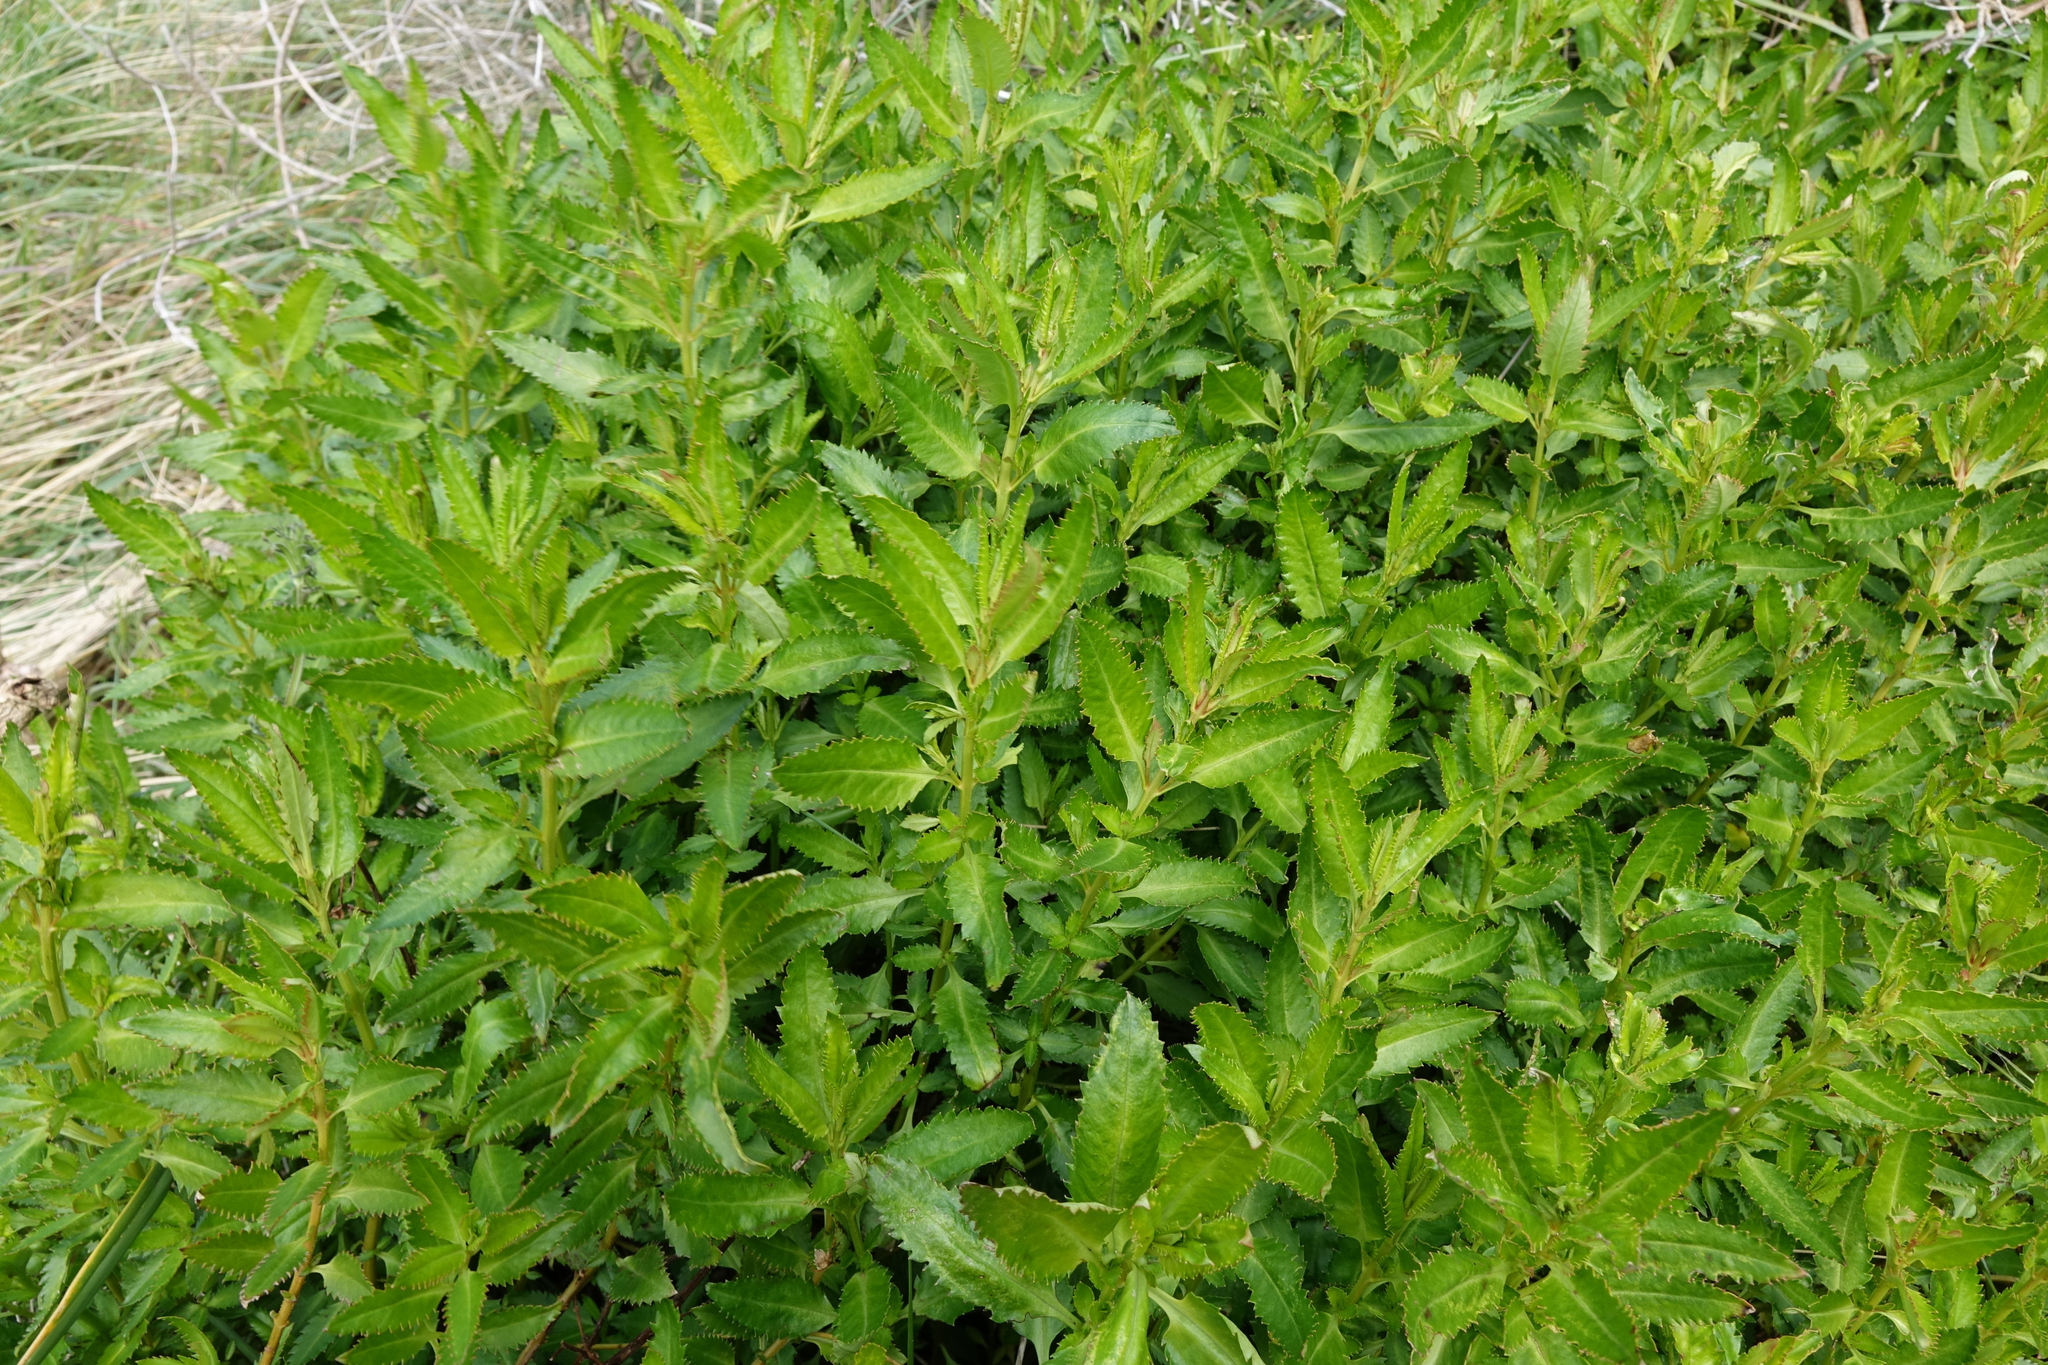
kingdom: Plantae
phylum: Tracheophyta
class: Magnoliopsida
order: Saxifragales
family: Haloragaceae
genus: Haloragis
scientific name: Haloragis erecta
